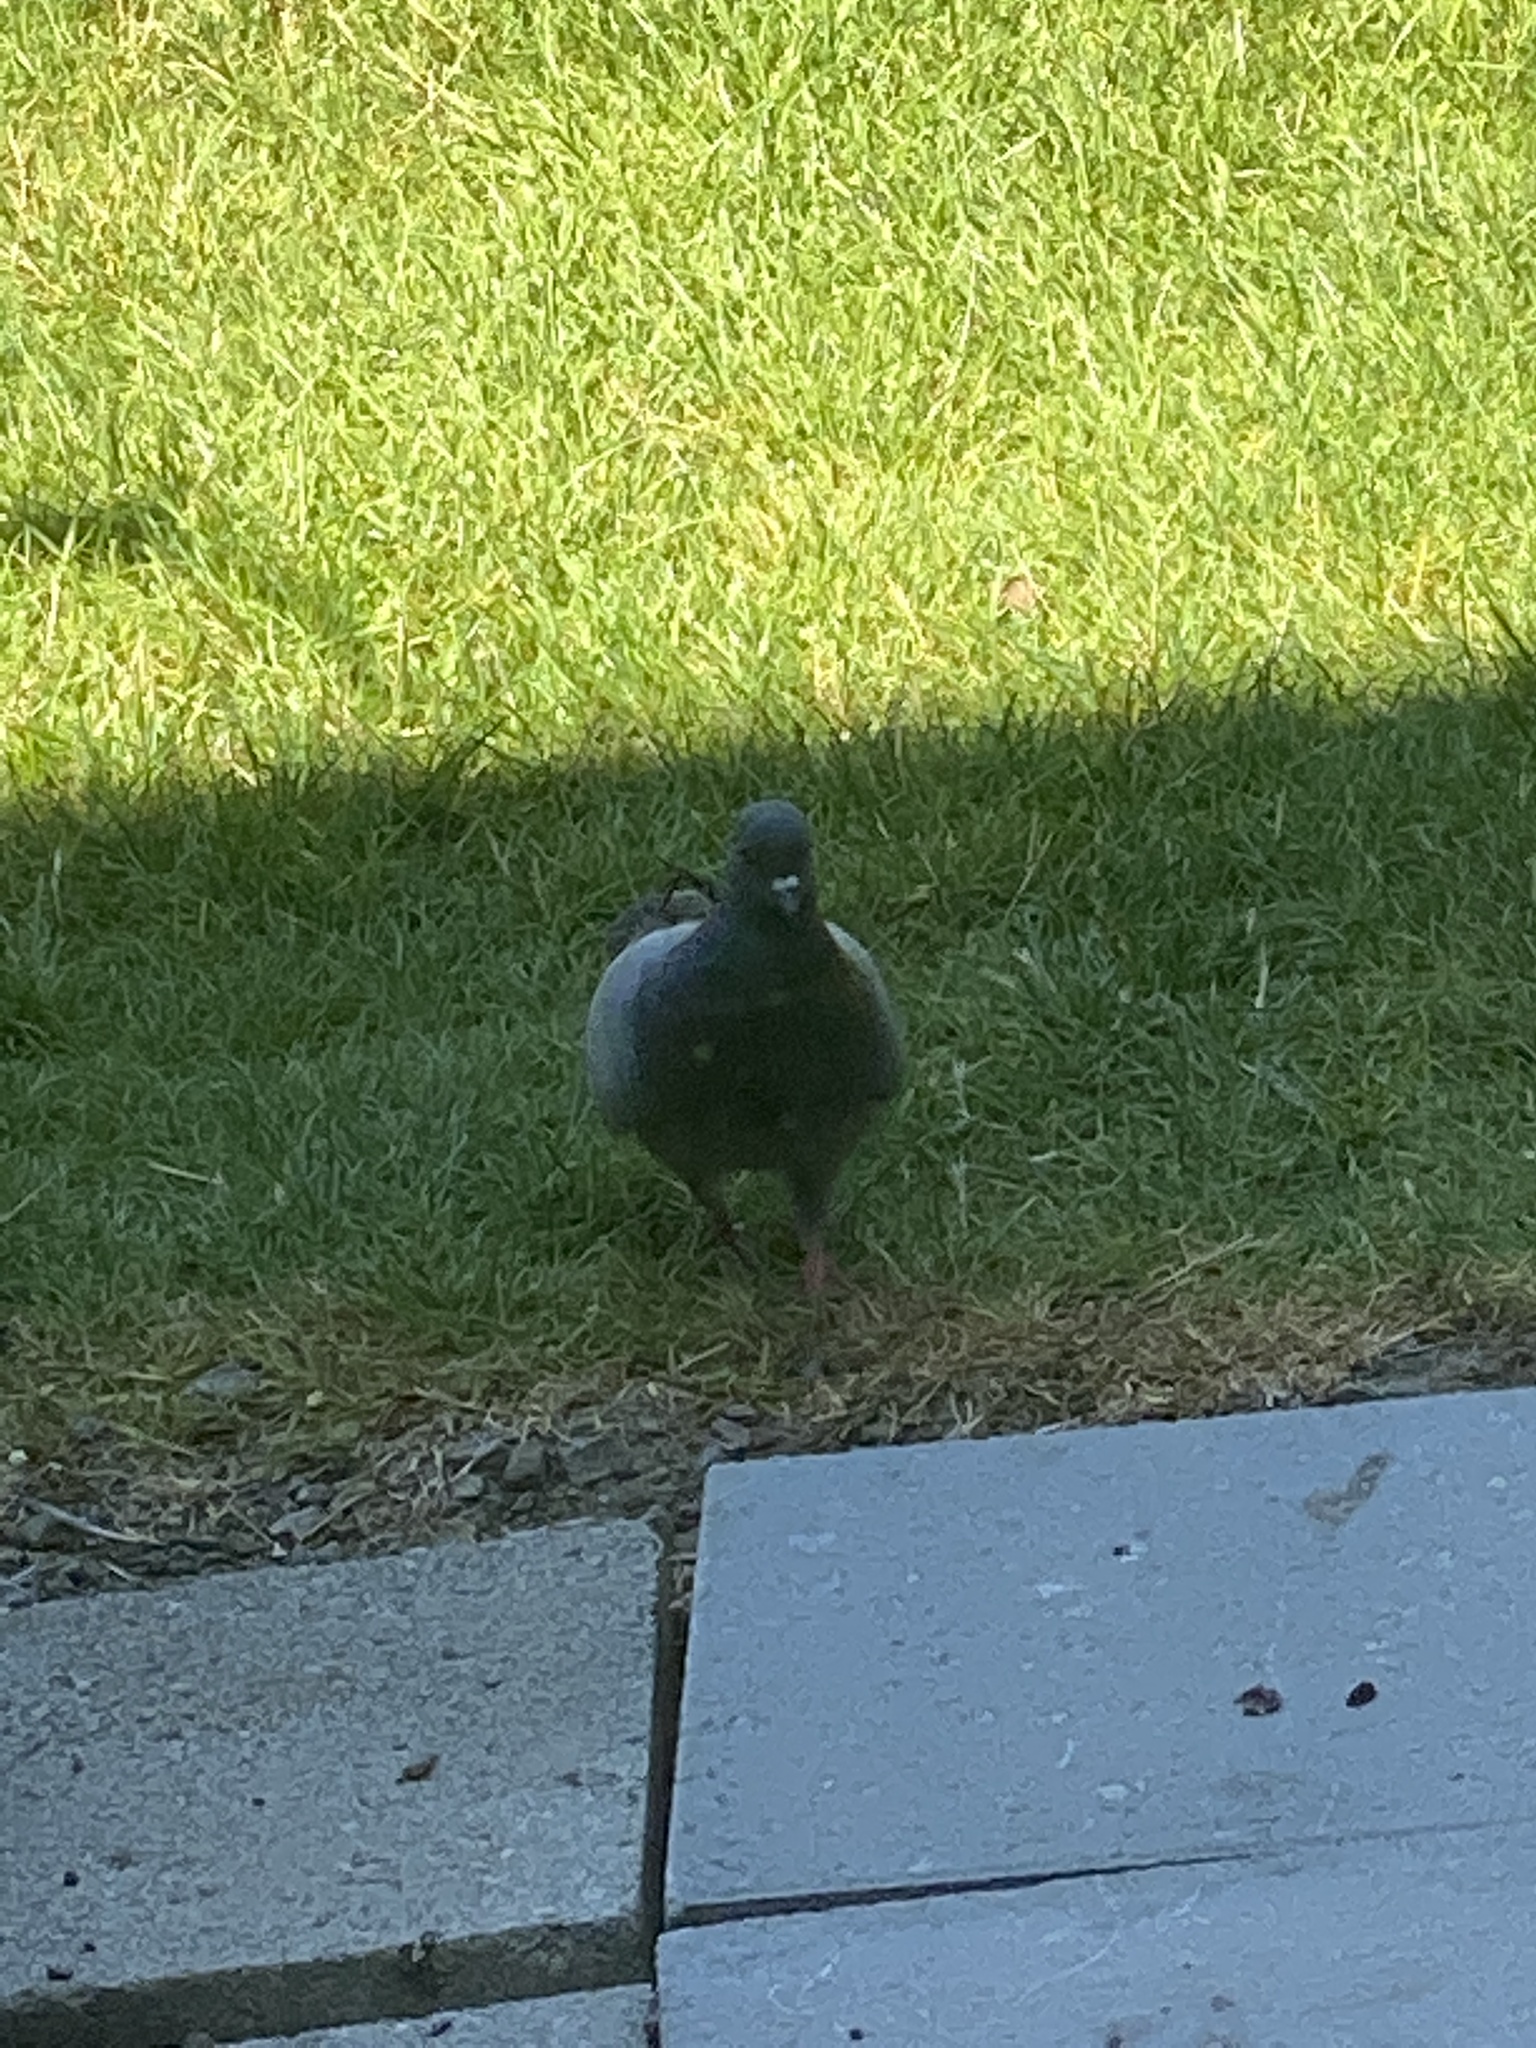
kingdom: Animalia
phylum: Chordata
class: Aves
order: Columbiformes
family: Columbidae
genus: Columba
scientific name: Columba livia
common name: Rock pigeon
